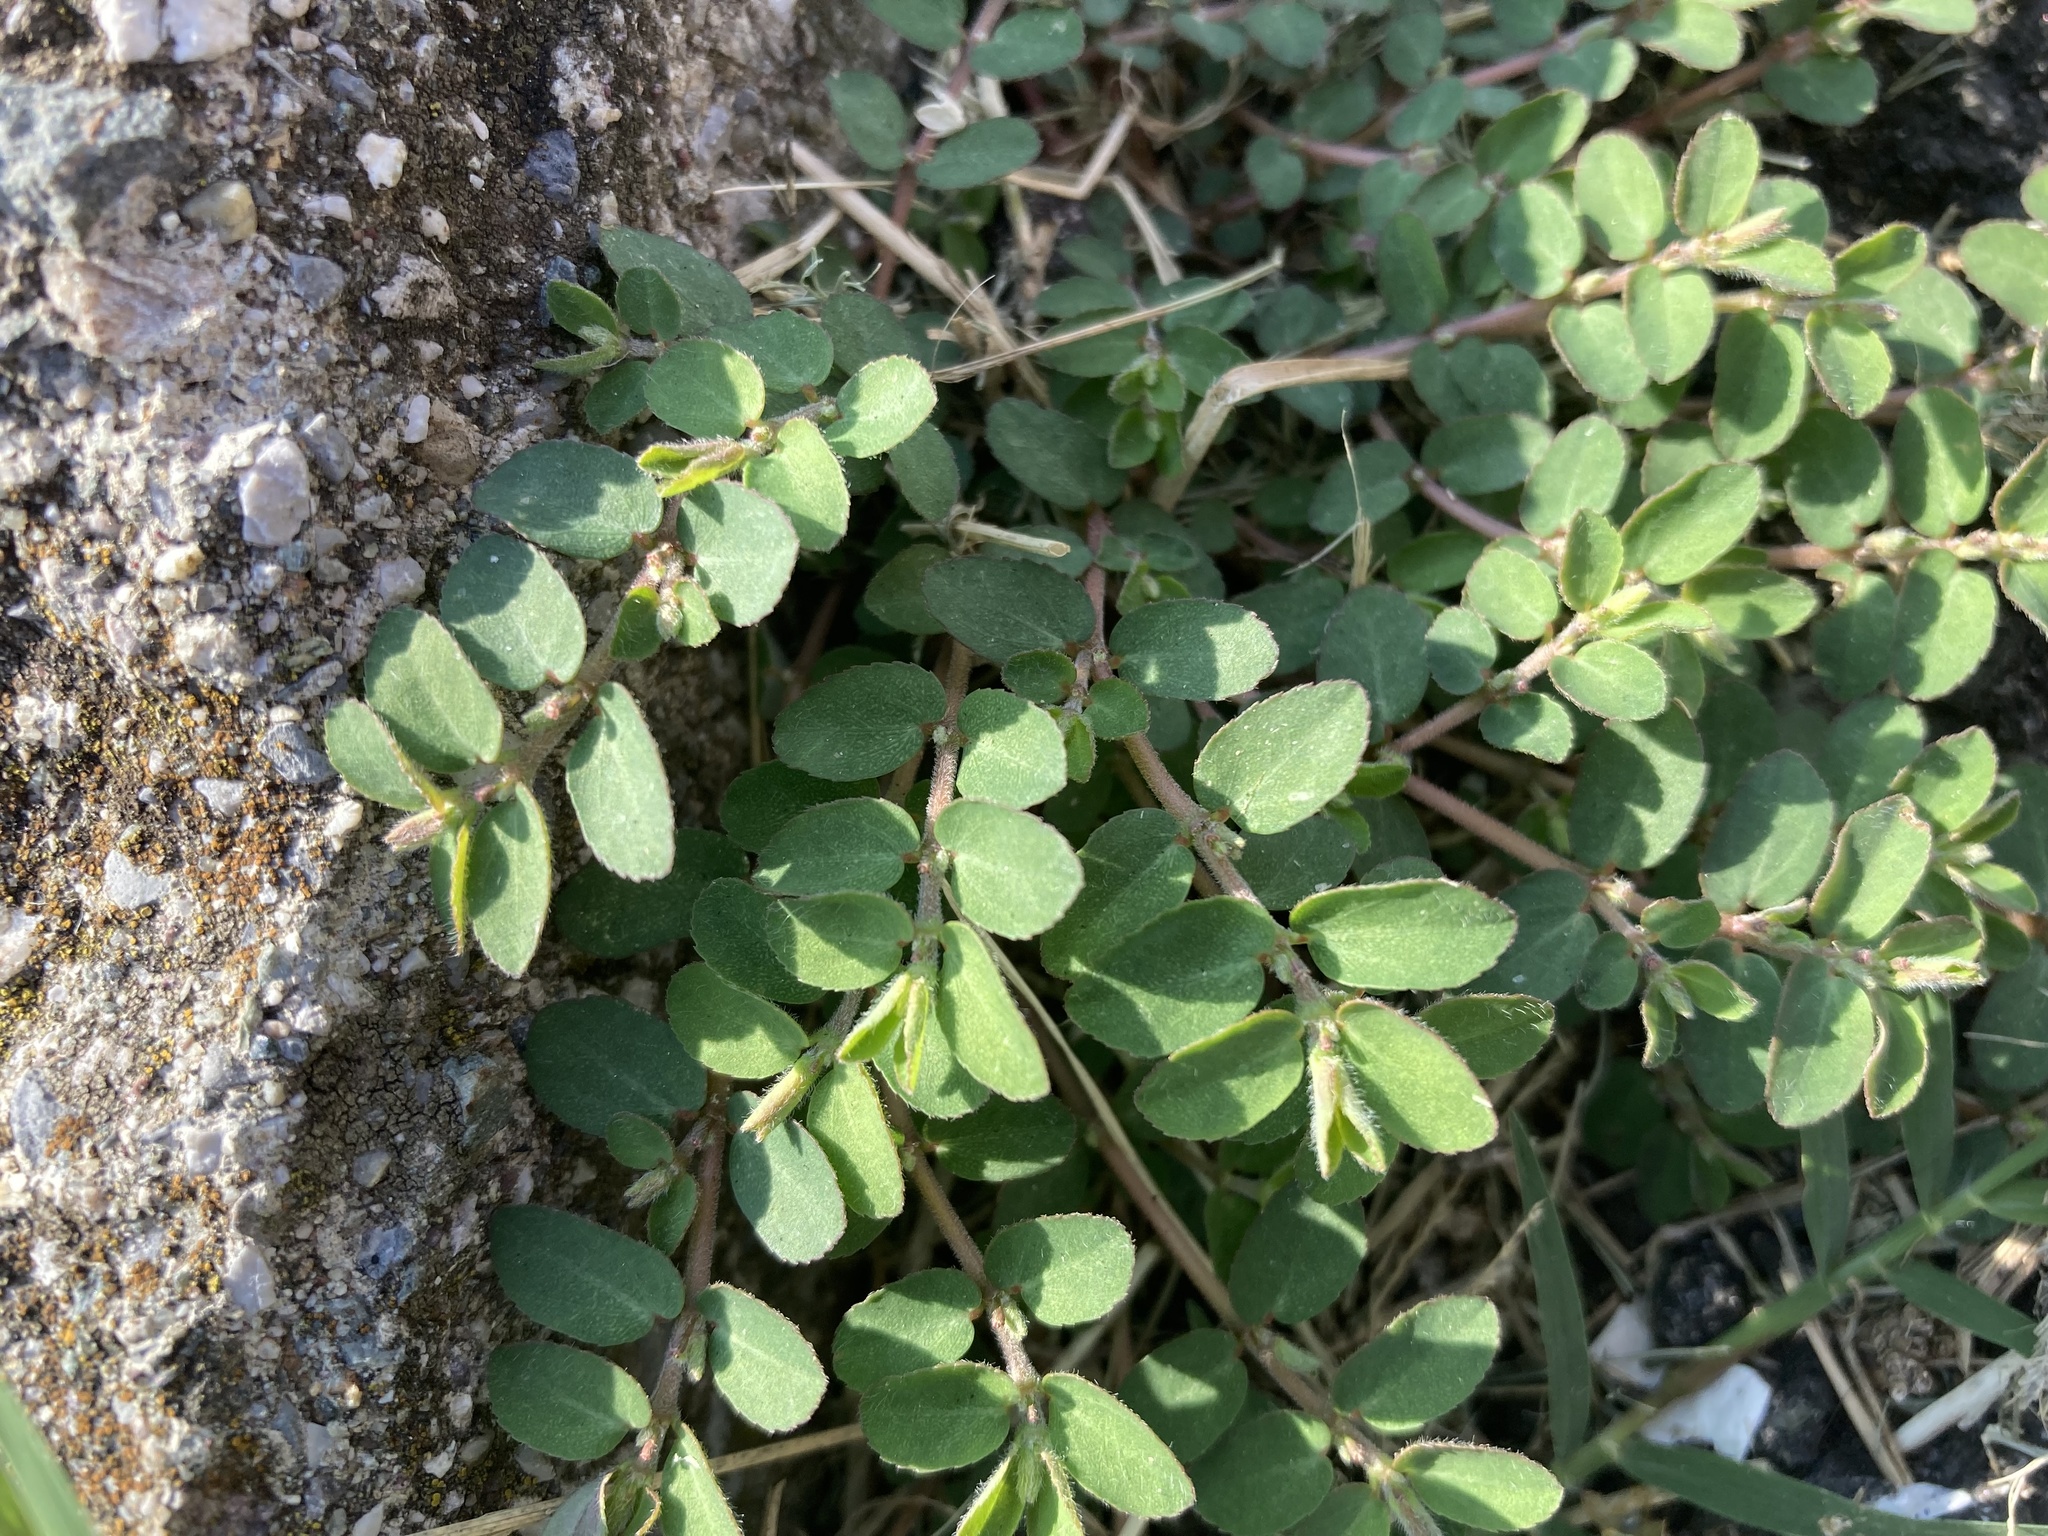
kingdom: Plantae
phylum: Tracheophyta
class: Magnoliopsida
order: Malpighiales
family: Euphorbiaceae
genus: Euphorbia
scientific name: Euphorbia prostrata
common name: Prostrate sandmat
